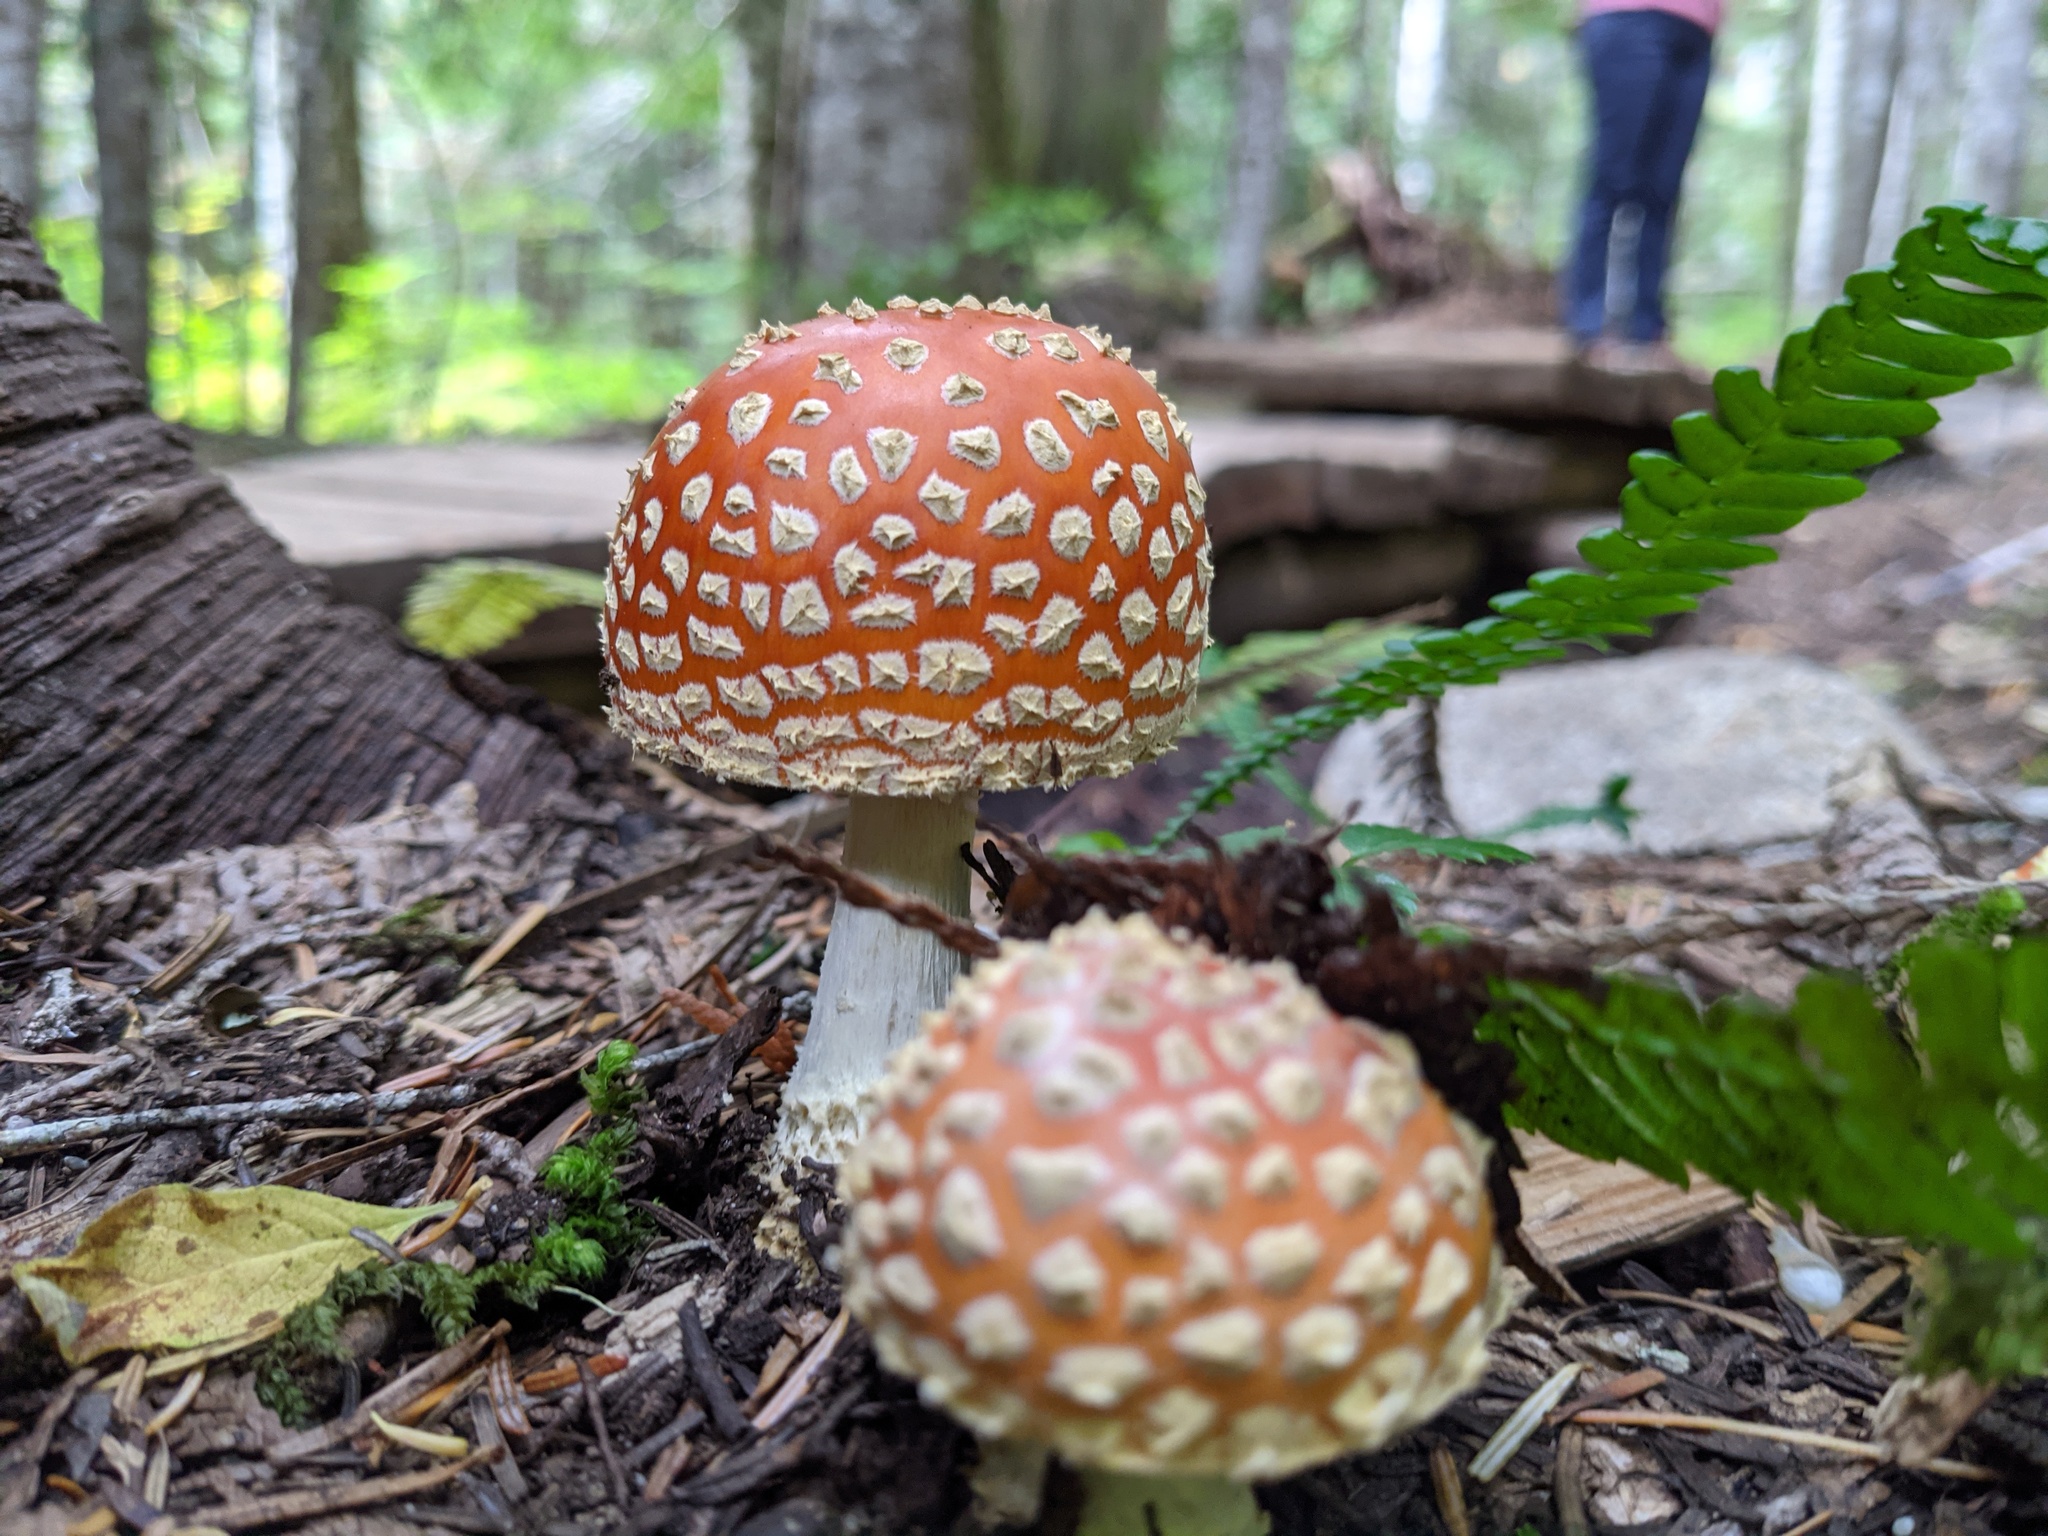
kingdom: Fungi
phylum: Basidiomycota
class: Agaricomycetes
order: Agaricales
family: Amanitaceae
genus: Amanita
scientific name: Amanita muscaria
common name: Fly agaric
